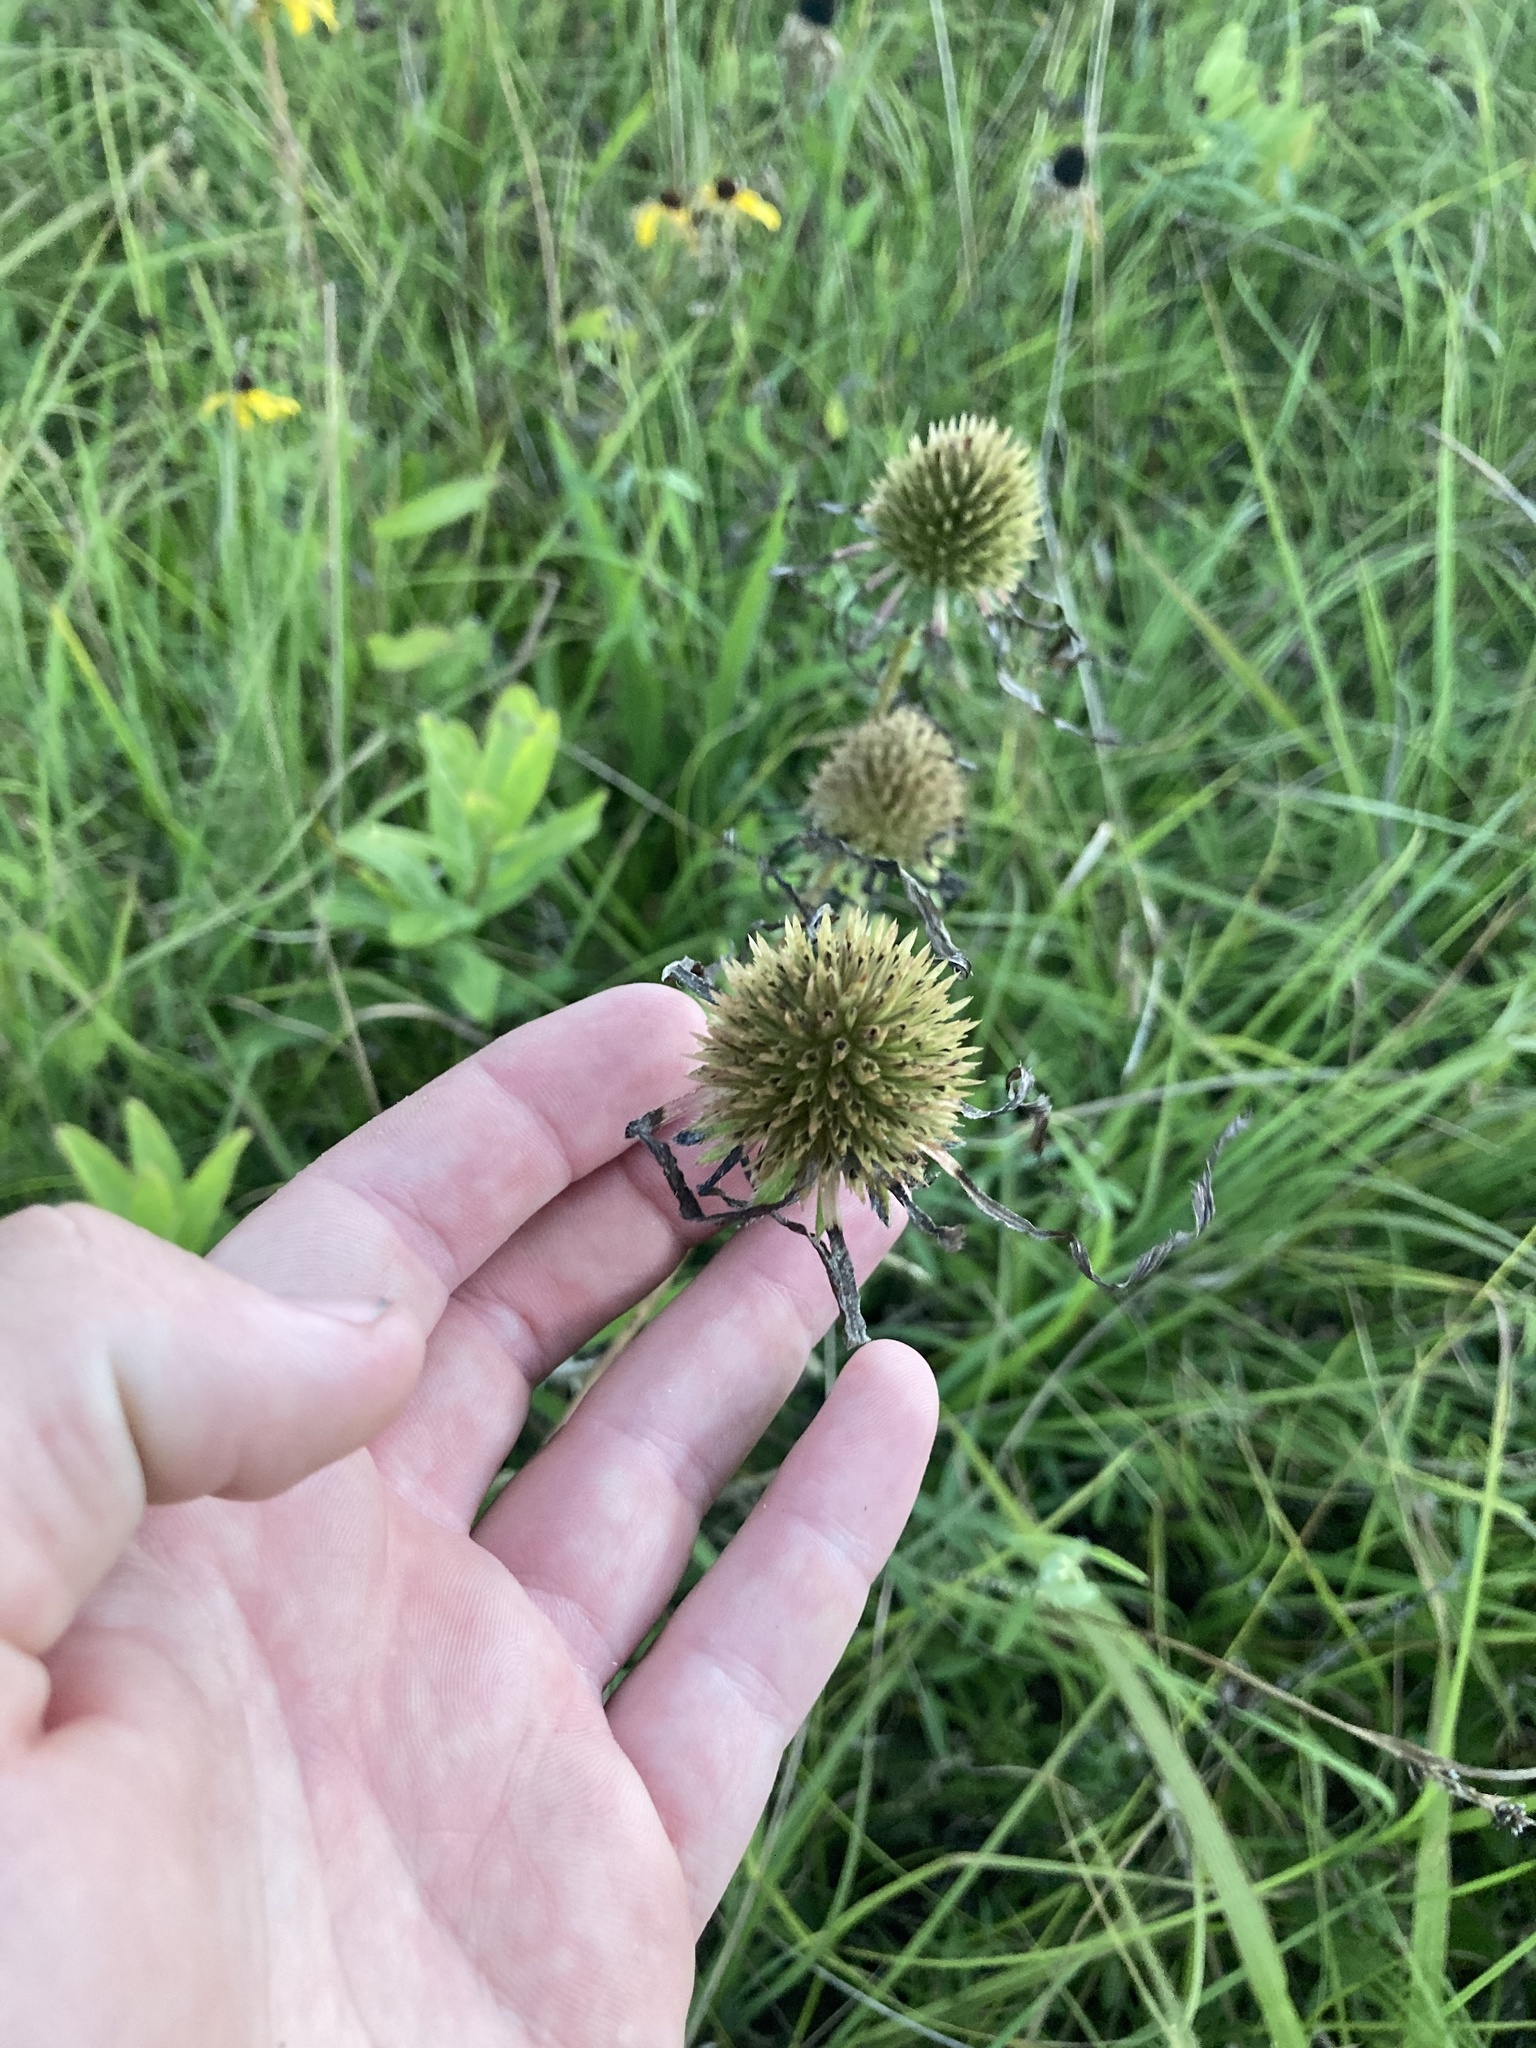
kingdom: Plantae
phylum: Tracheophyta
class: Magnoliopsida
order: Asterales
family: Asteraceae
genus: Echinacea
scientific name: Echinacea pallida
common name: Pale echinacea
